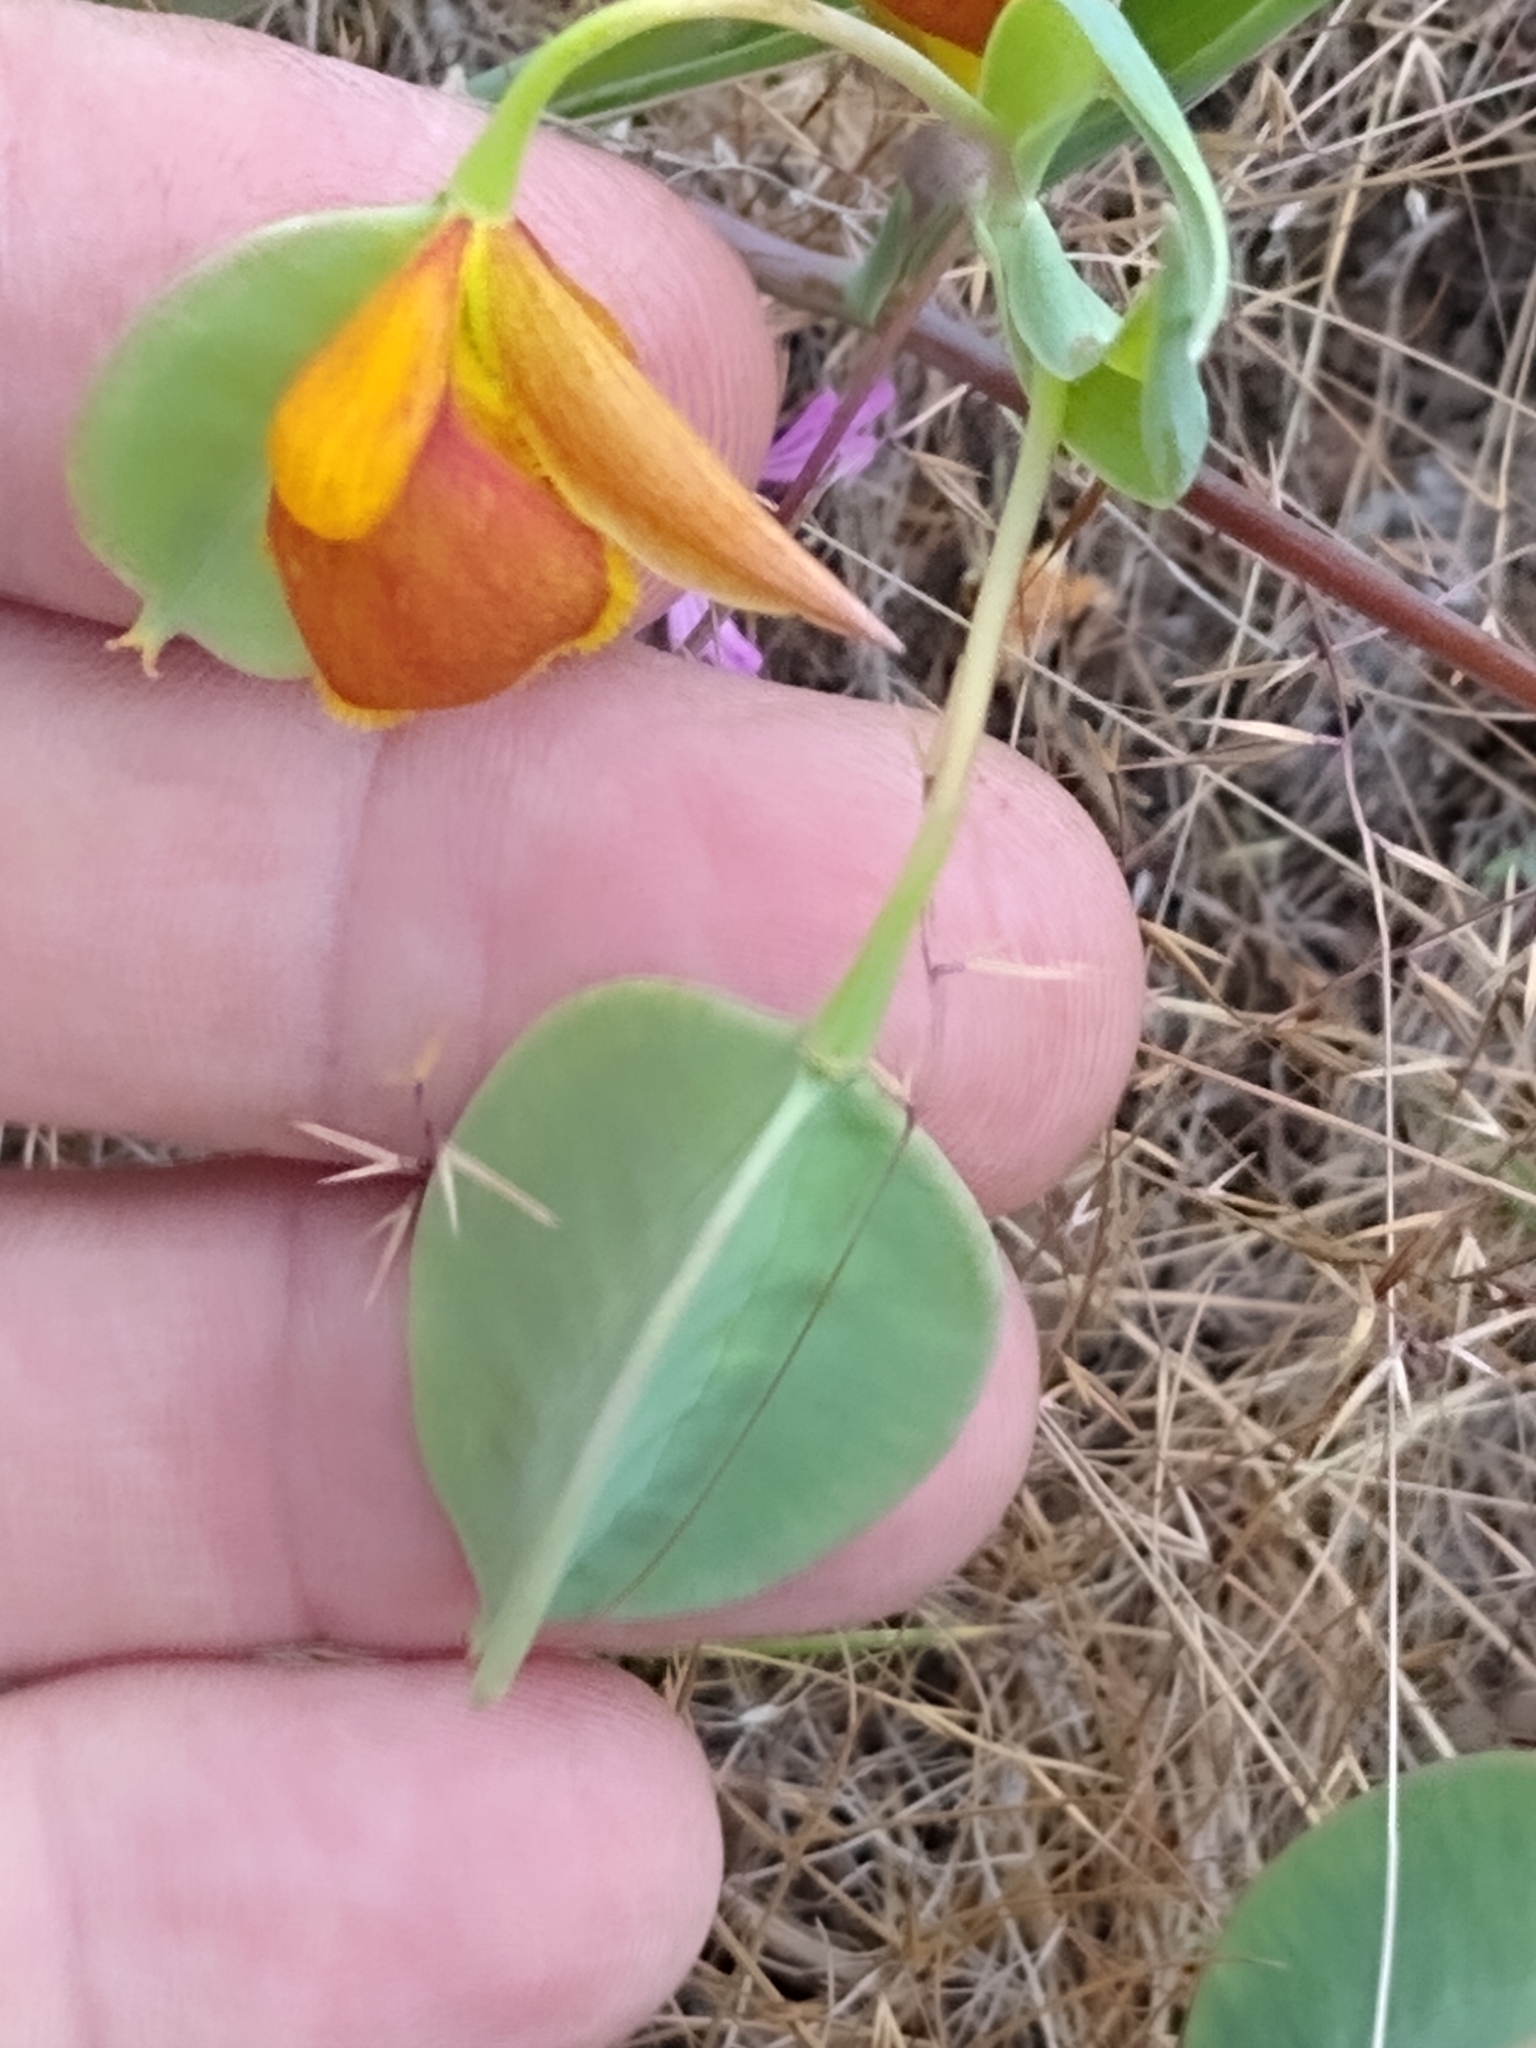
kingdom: Plantae
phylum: Tracheophyta
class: Liliopsida
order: Liliales
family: Liliaceae
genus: Calochortus
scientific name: Calochortus amabilis
